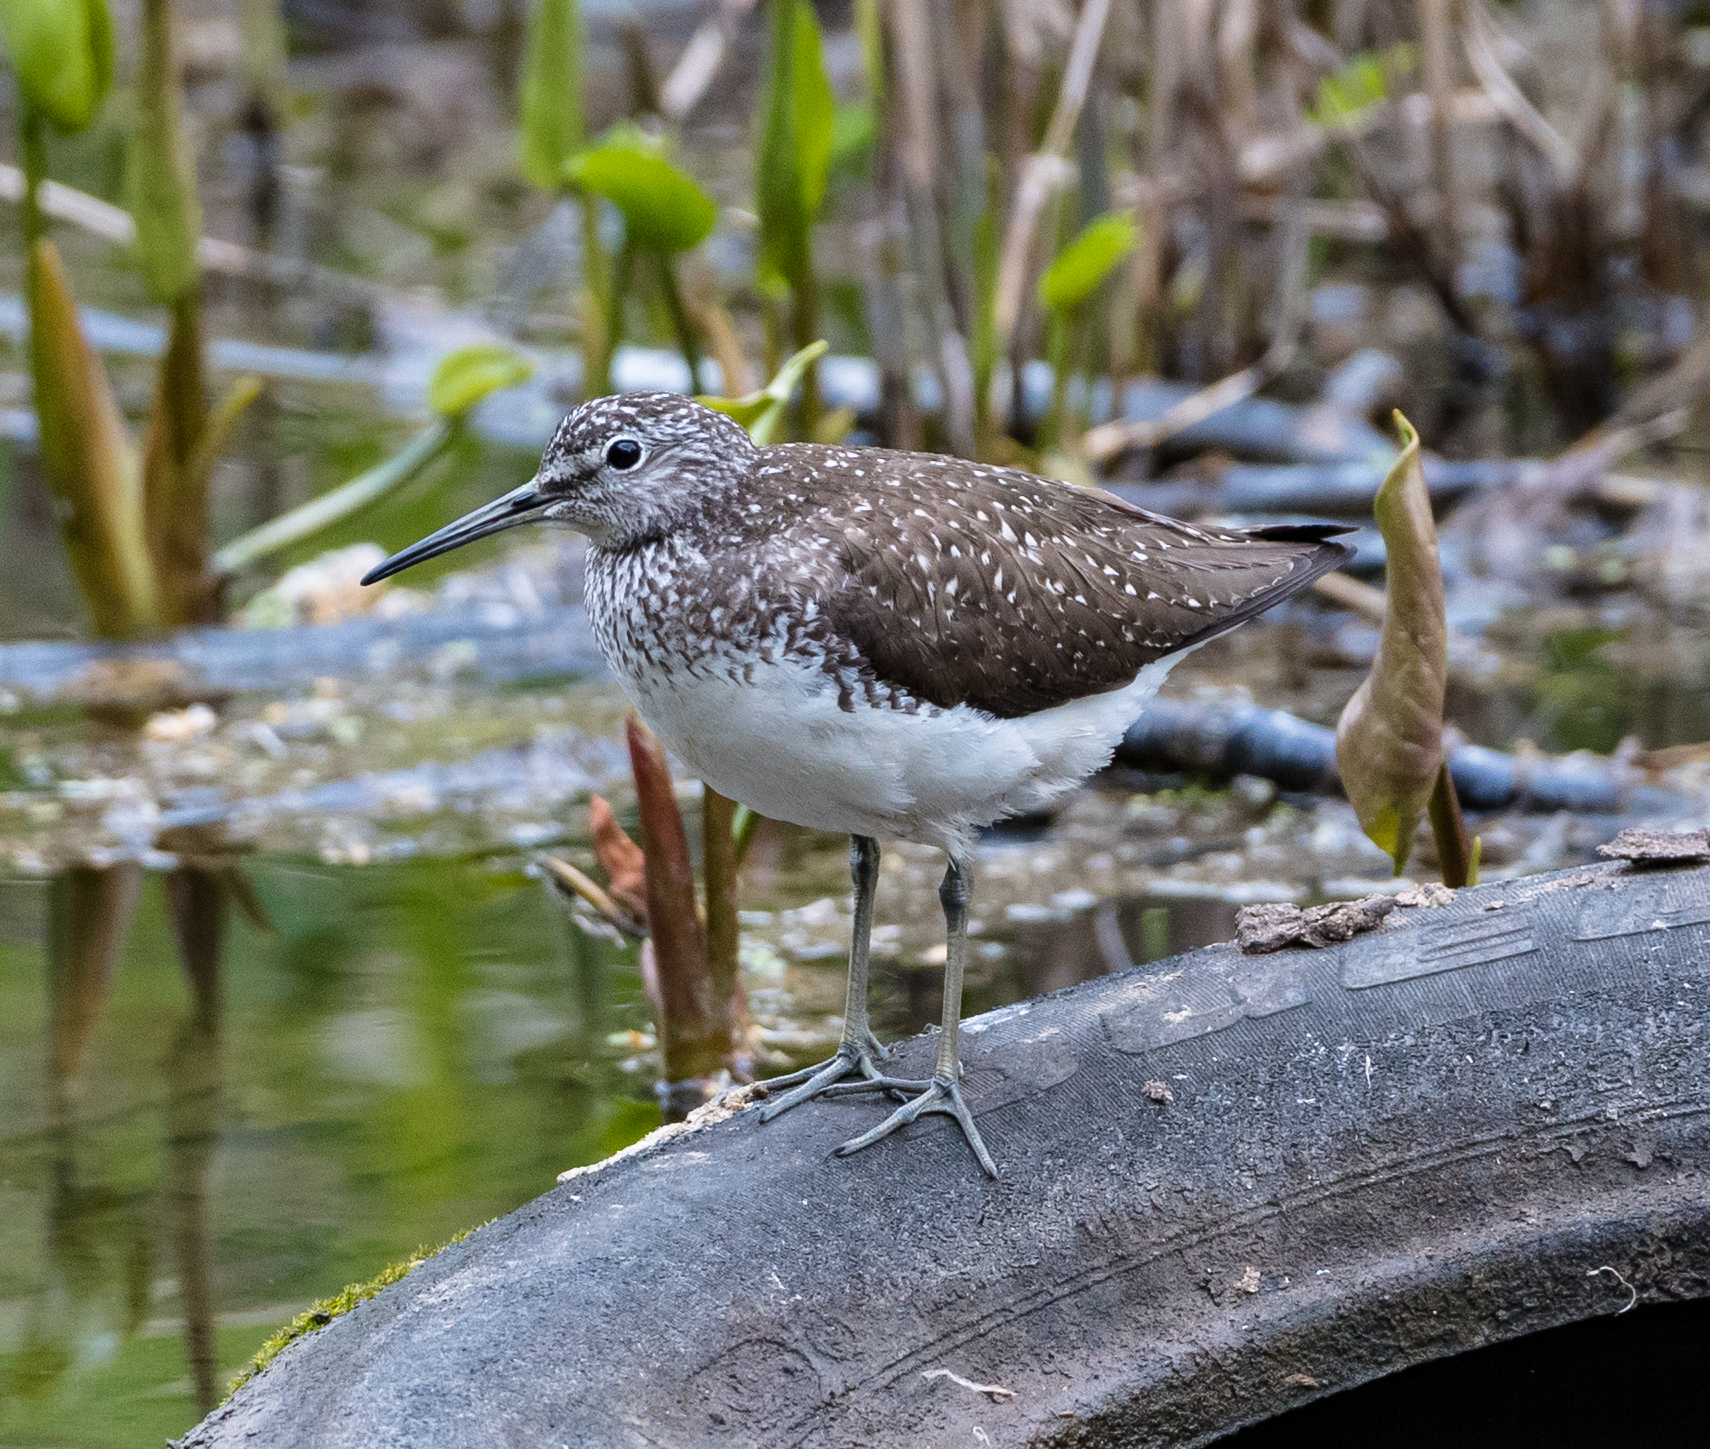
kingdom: Animalia
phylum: Chordata
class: Aves
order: Charadriiformes
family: Scolopacidae
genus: Tringa
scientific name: Tringa ochropus
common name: Green sandpiper
